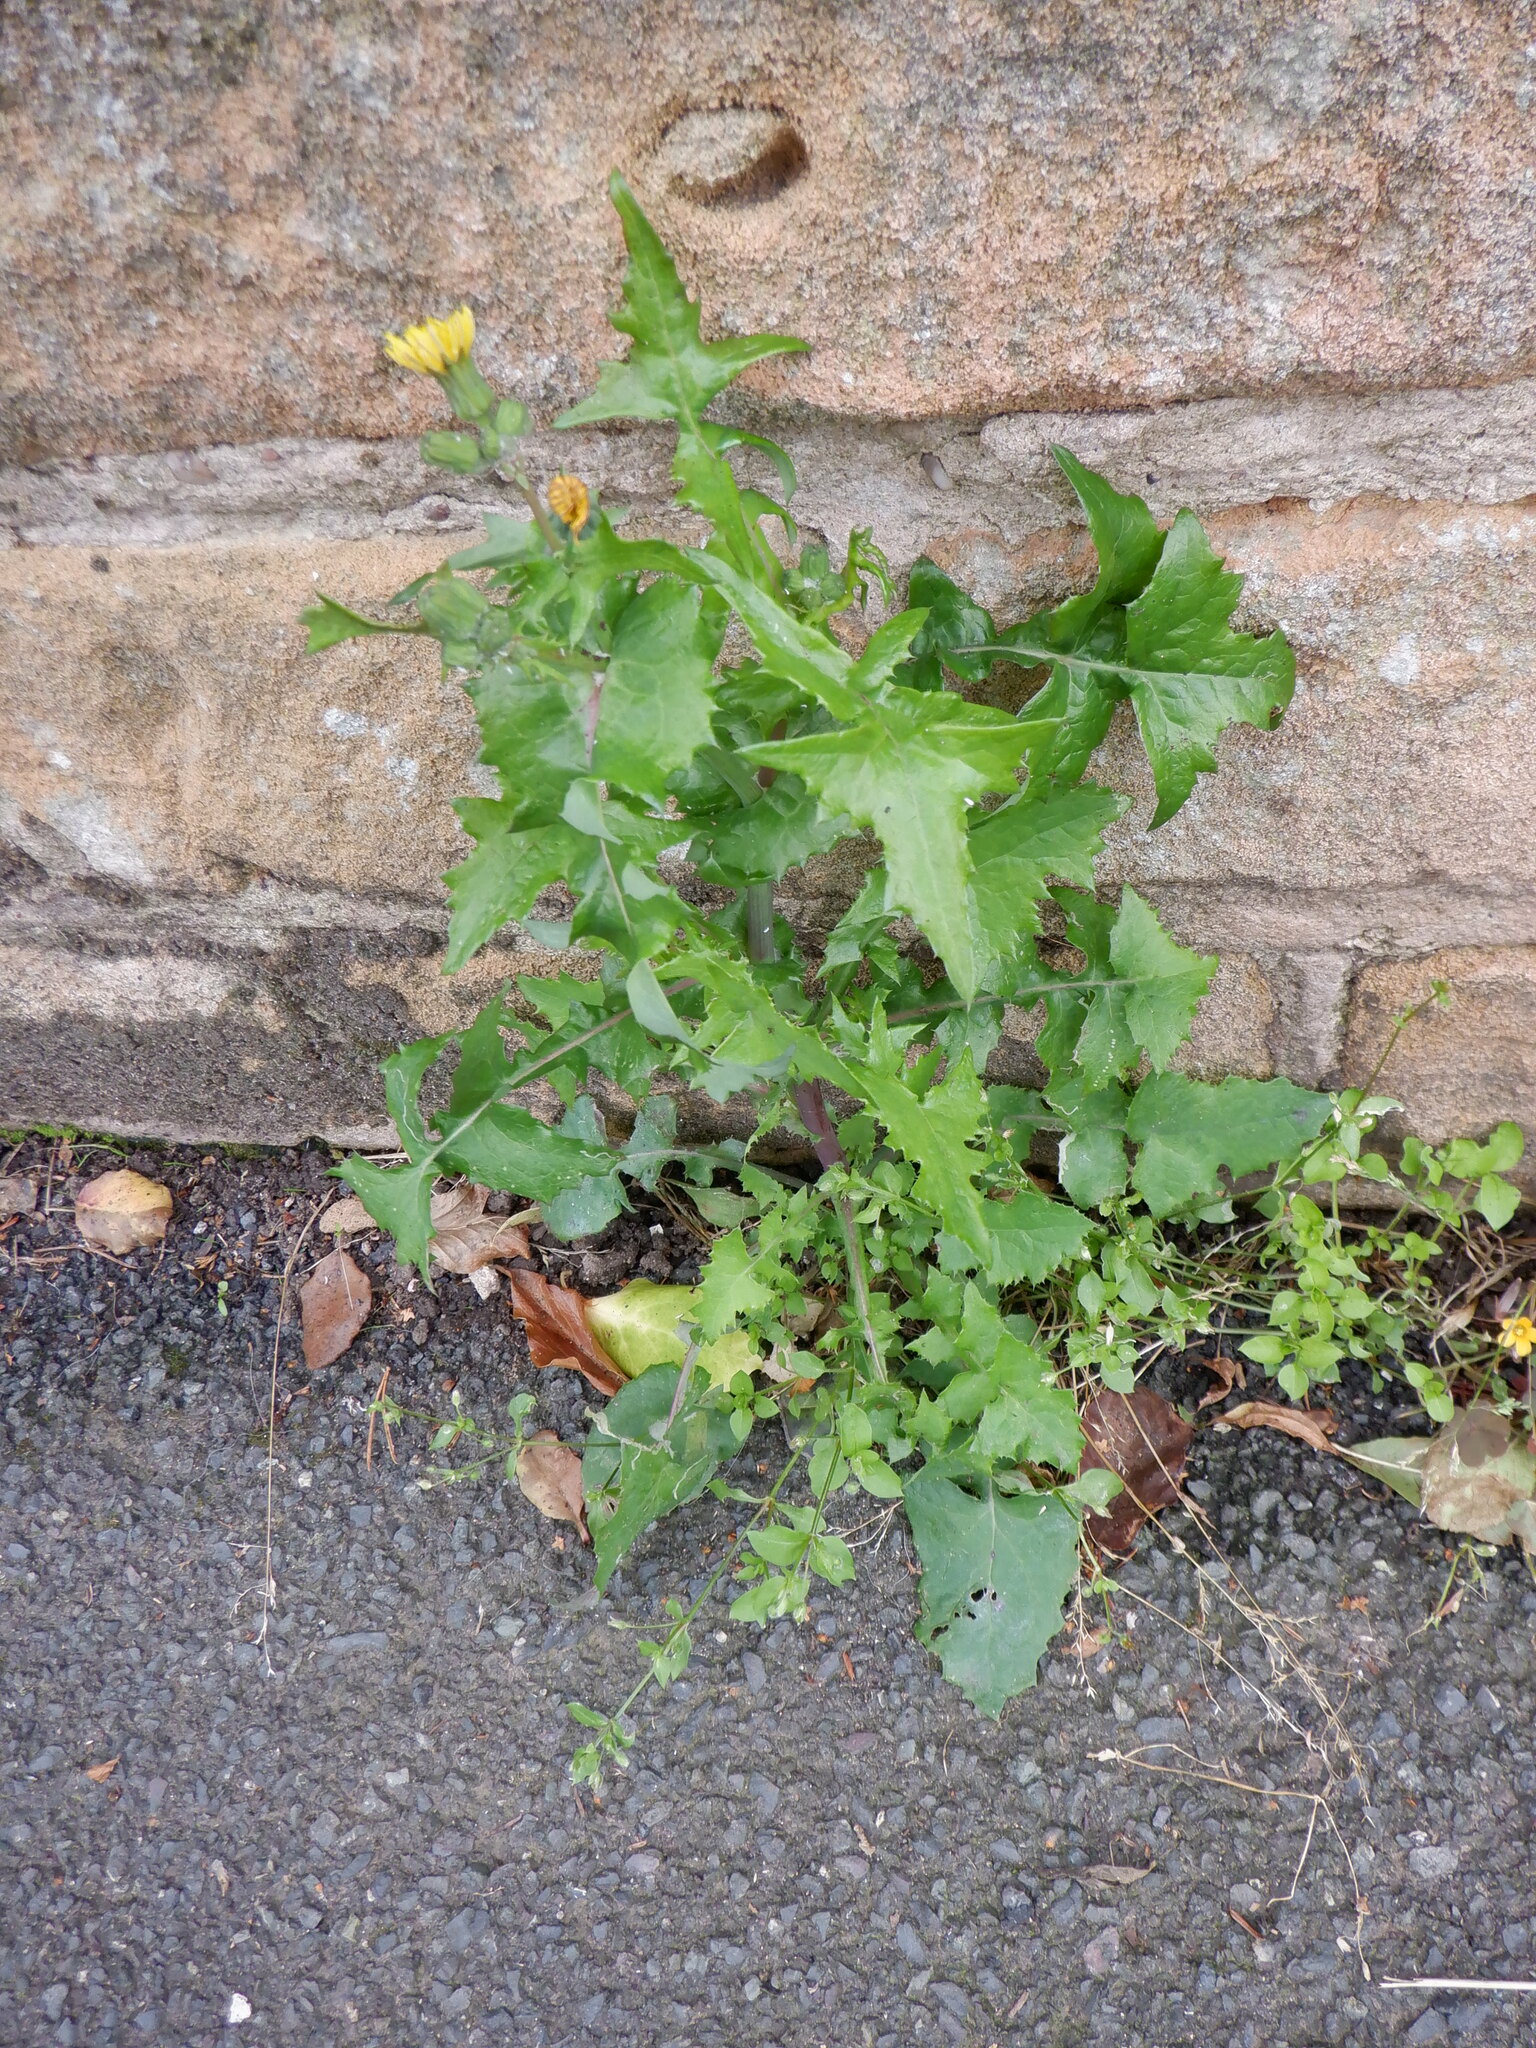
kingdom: Plantae
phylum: Tracheophyta
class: Magnoliopsida
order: Asterales
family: Asteraceae
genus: Sonchus
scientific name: Sonchus oleraceus
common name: Common sowthistle
